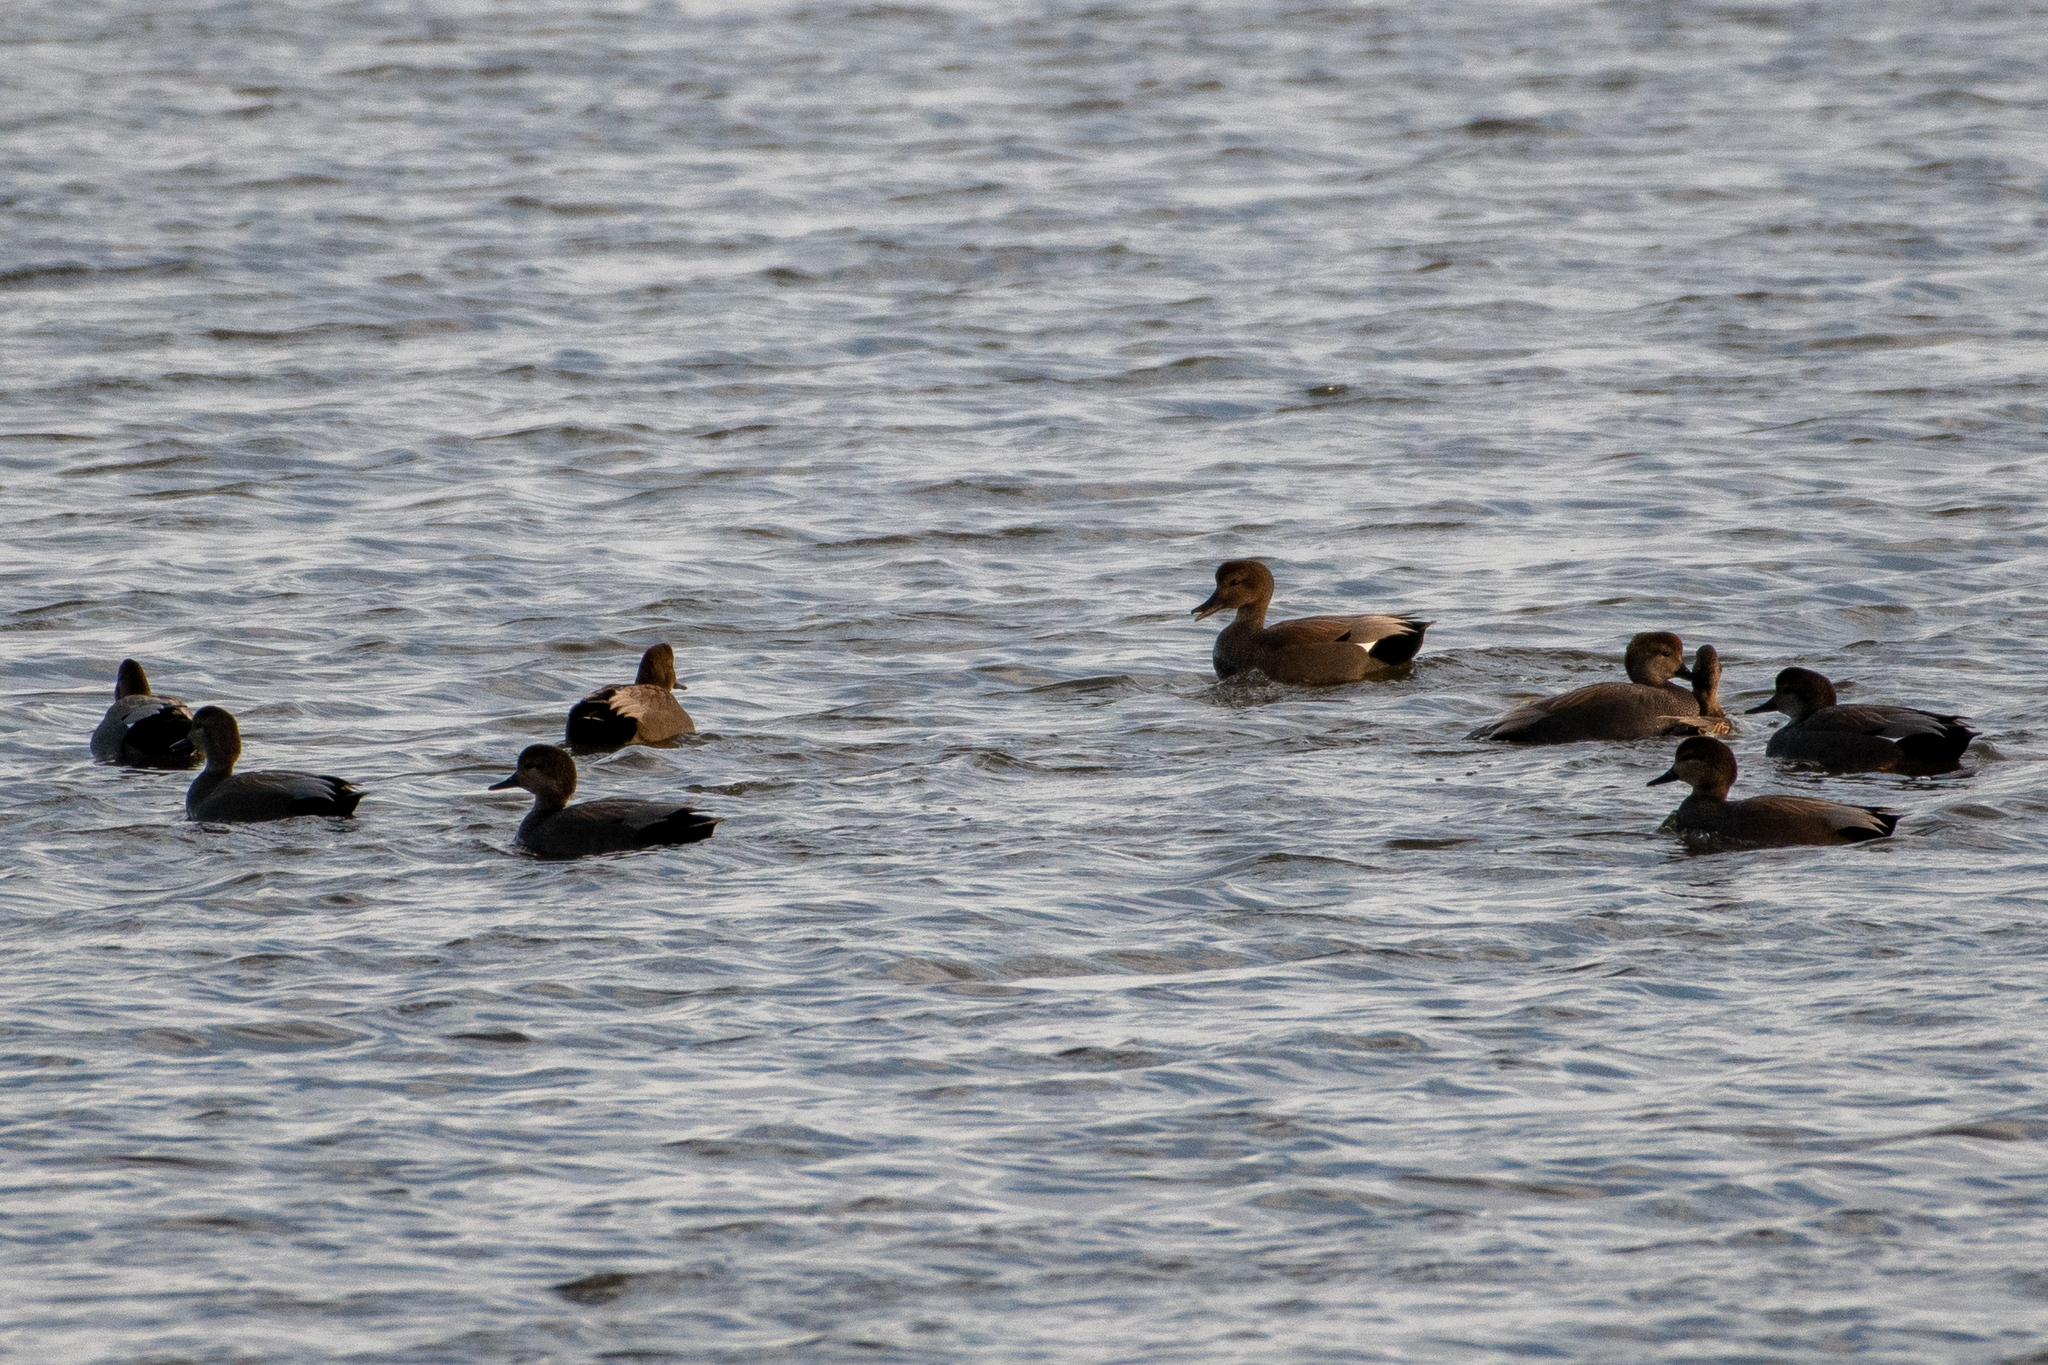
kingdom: Animalia
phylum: Chordata
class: Aves
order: Anseriformes
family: Anatidae
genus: Mareca
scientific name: Mareca strepera
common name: Gadwall
